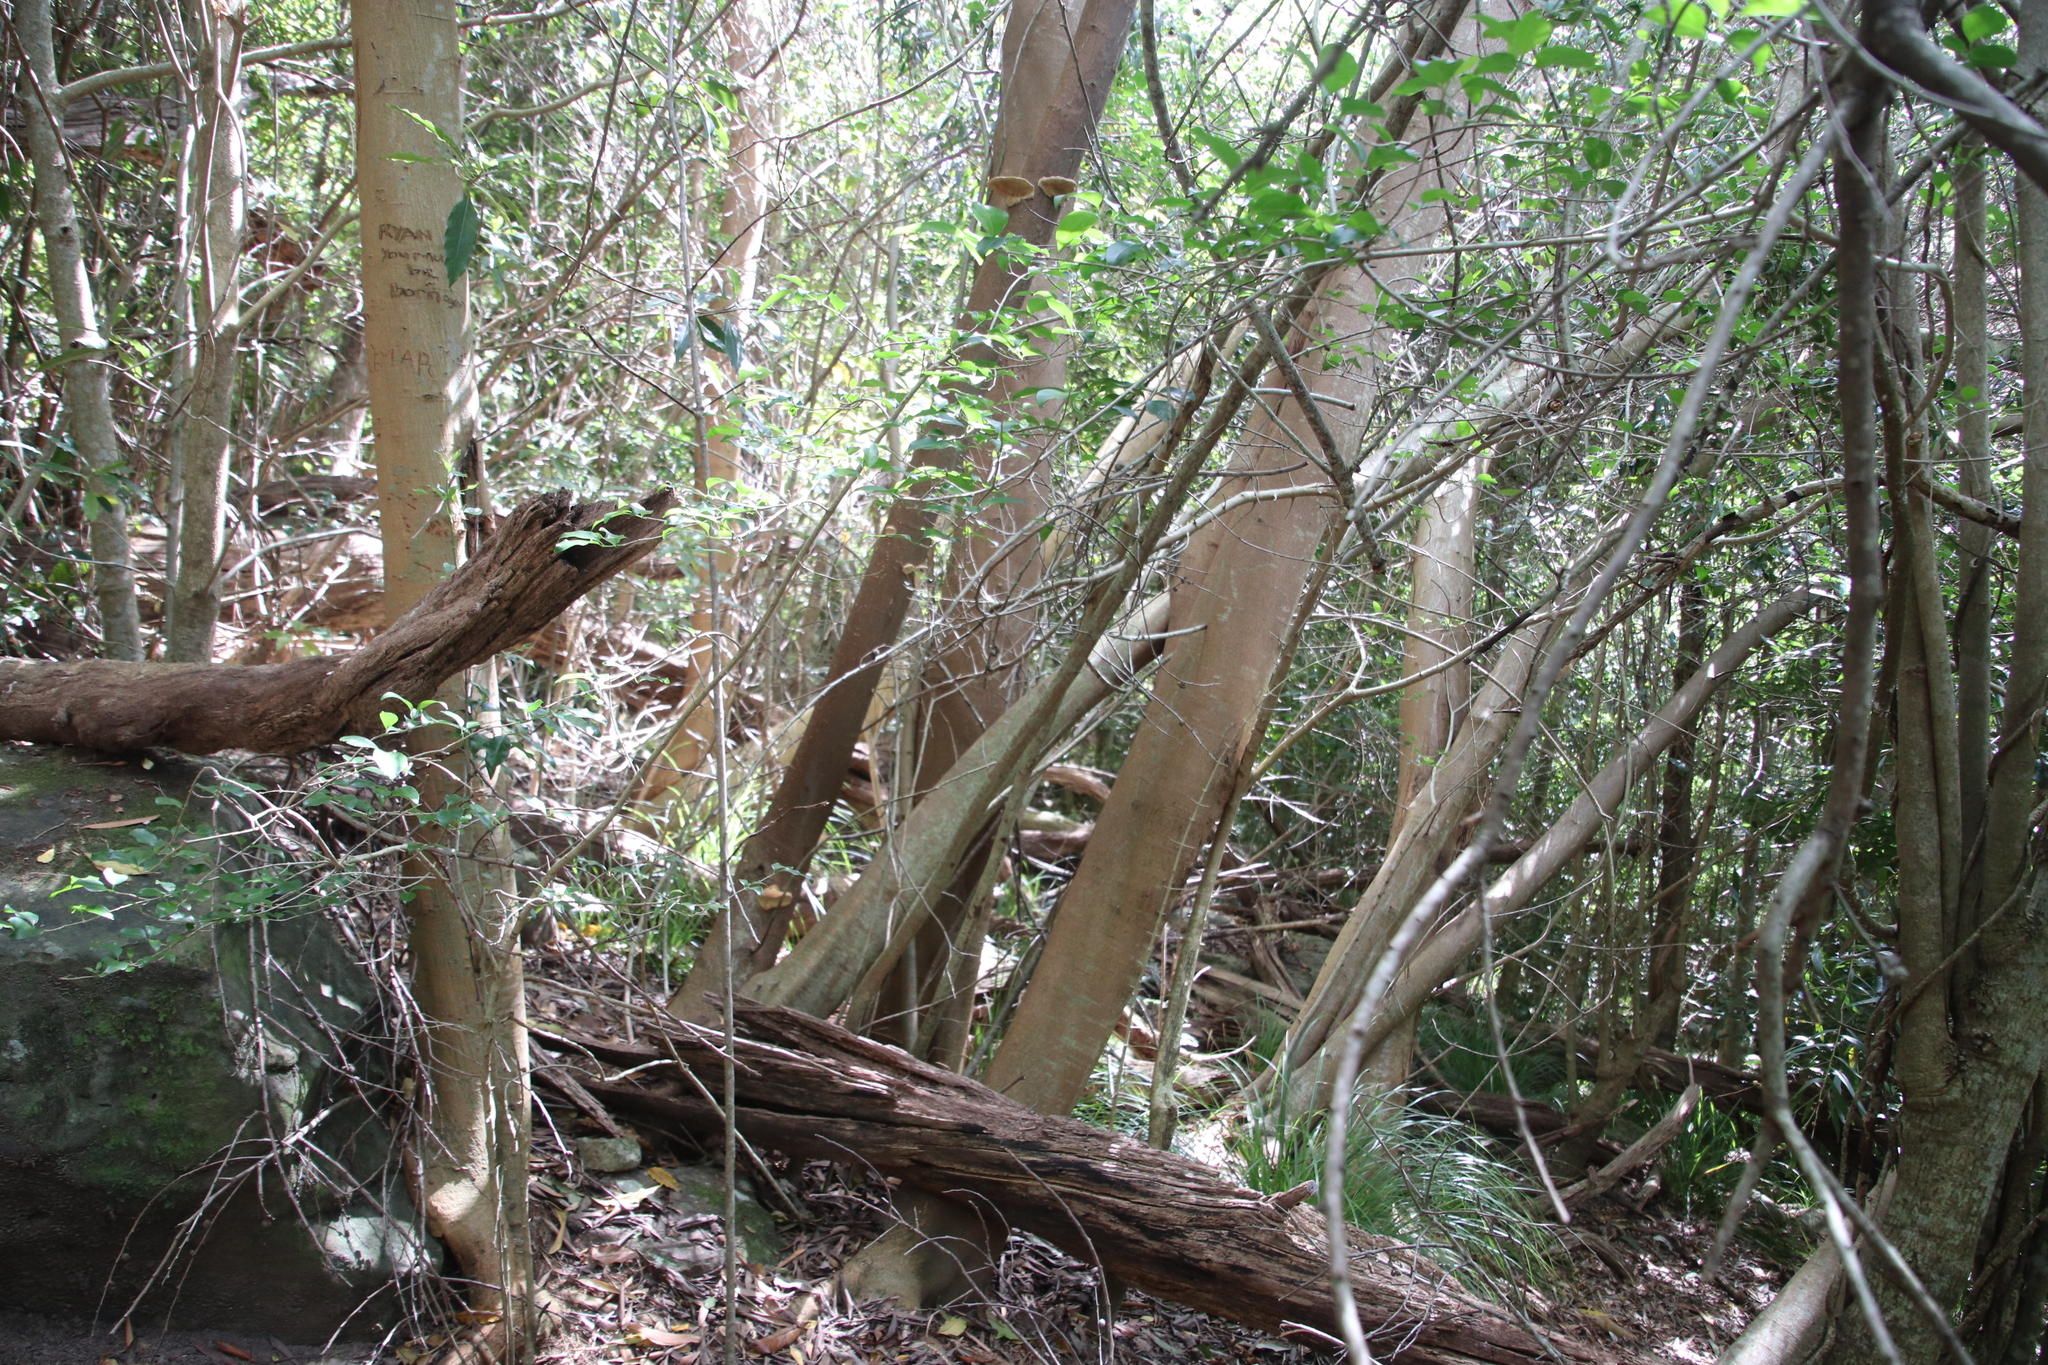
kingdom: Plantae
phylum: Tracheophyta
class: Magnoliopsida
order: Fabales
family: Fabaceae
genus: Acacia
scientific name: Acacia longifolia
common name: Sydney golden wattle
